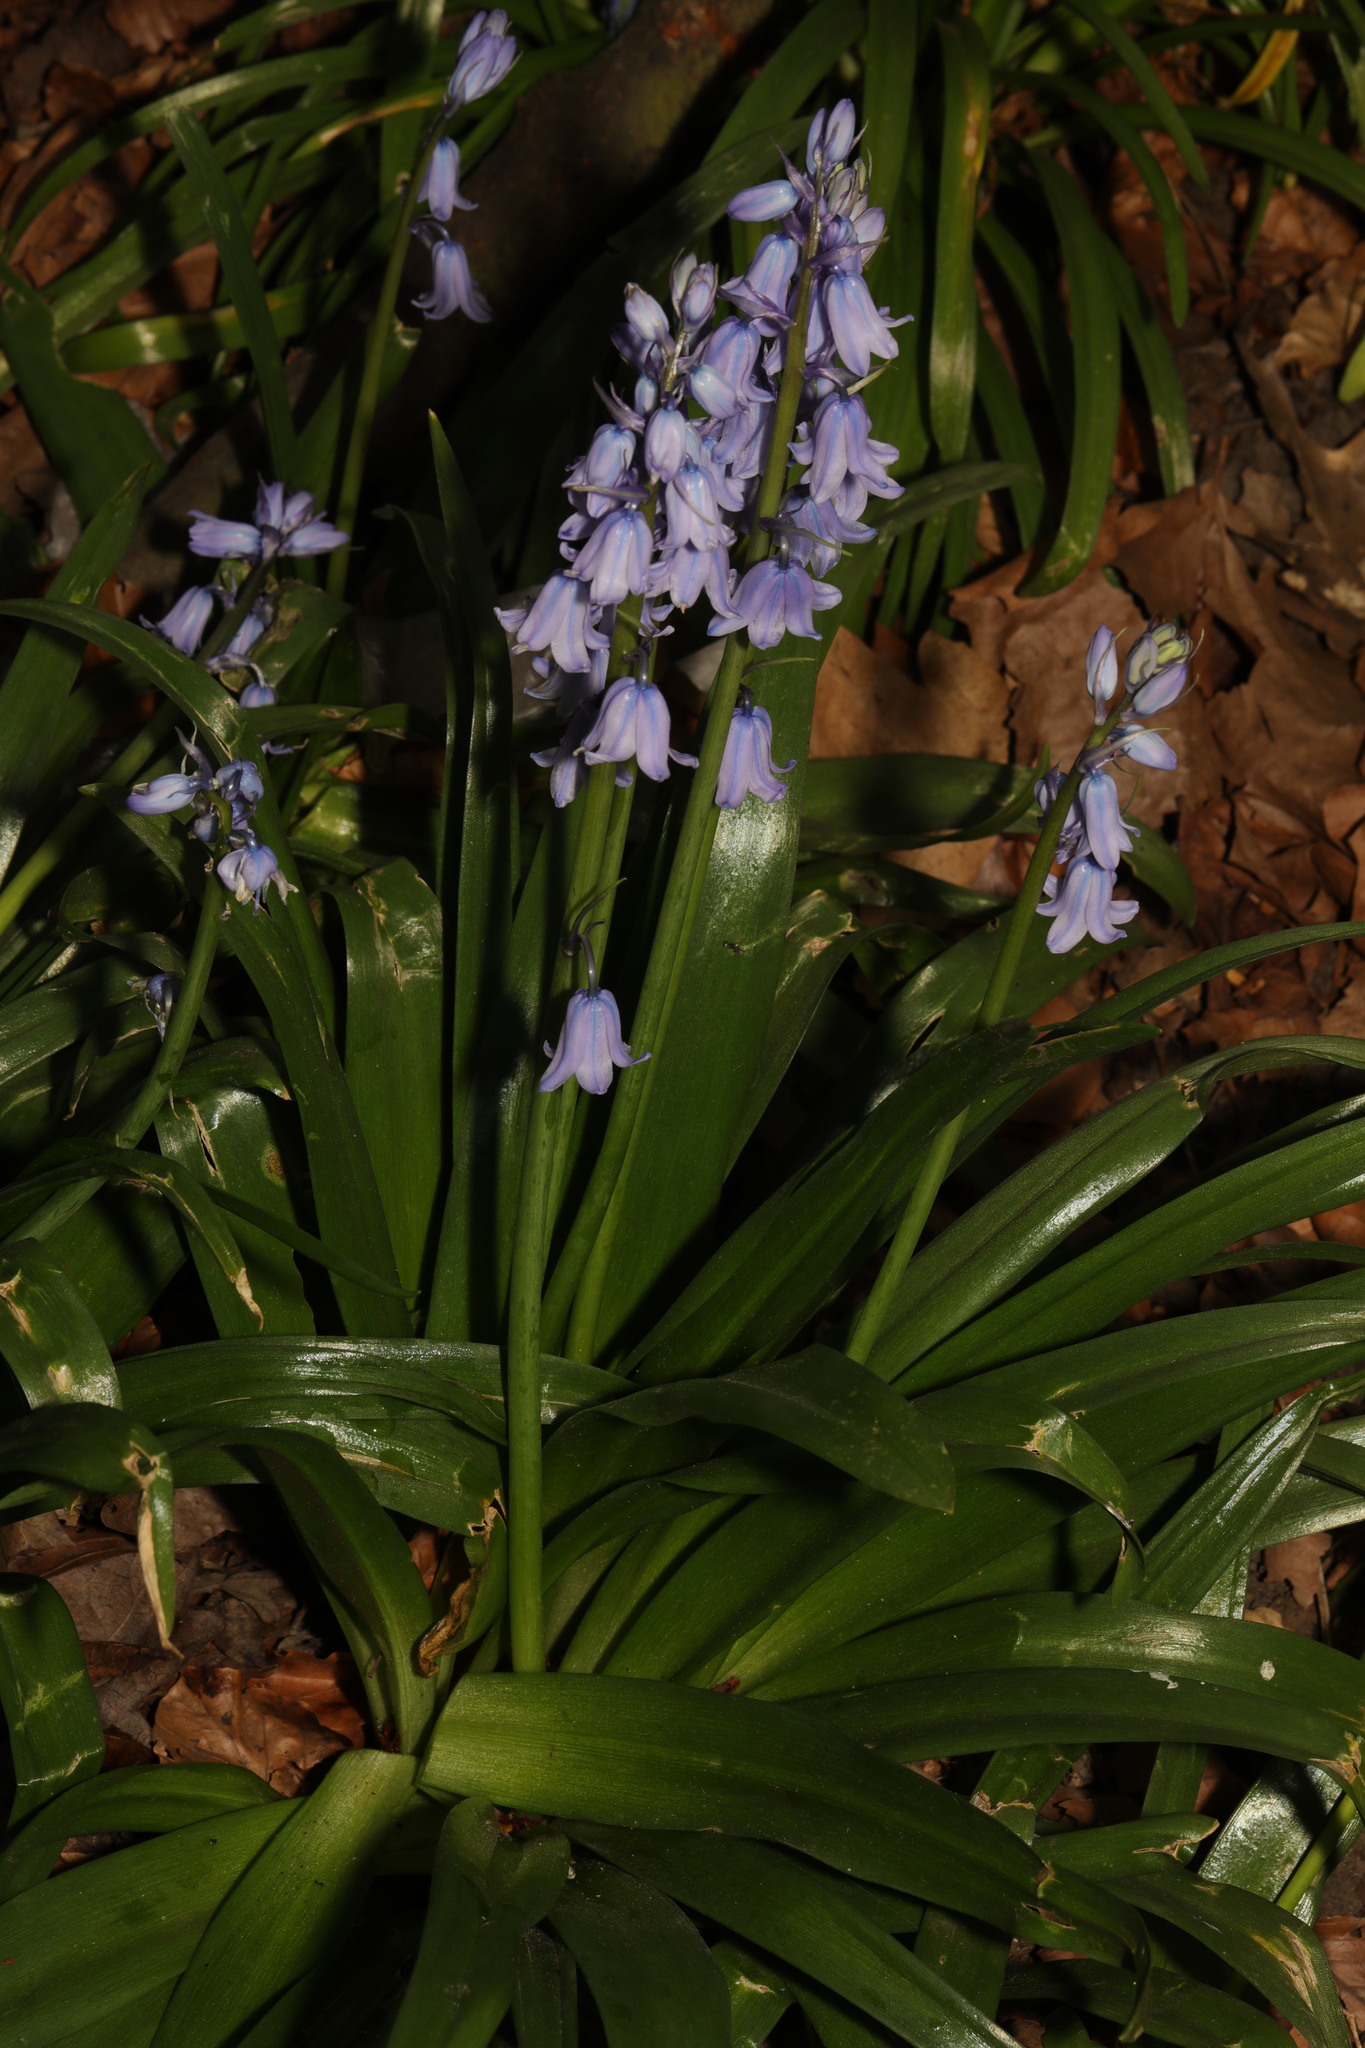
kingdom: Plantae
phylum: Tracheophyta
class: Liliopsida
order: Asparagales
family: Asparagaceae
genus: Hyacinthoides
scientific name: Hyacinthoides hispanica
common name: Spanish bluebell
